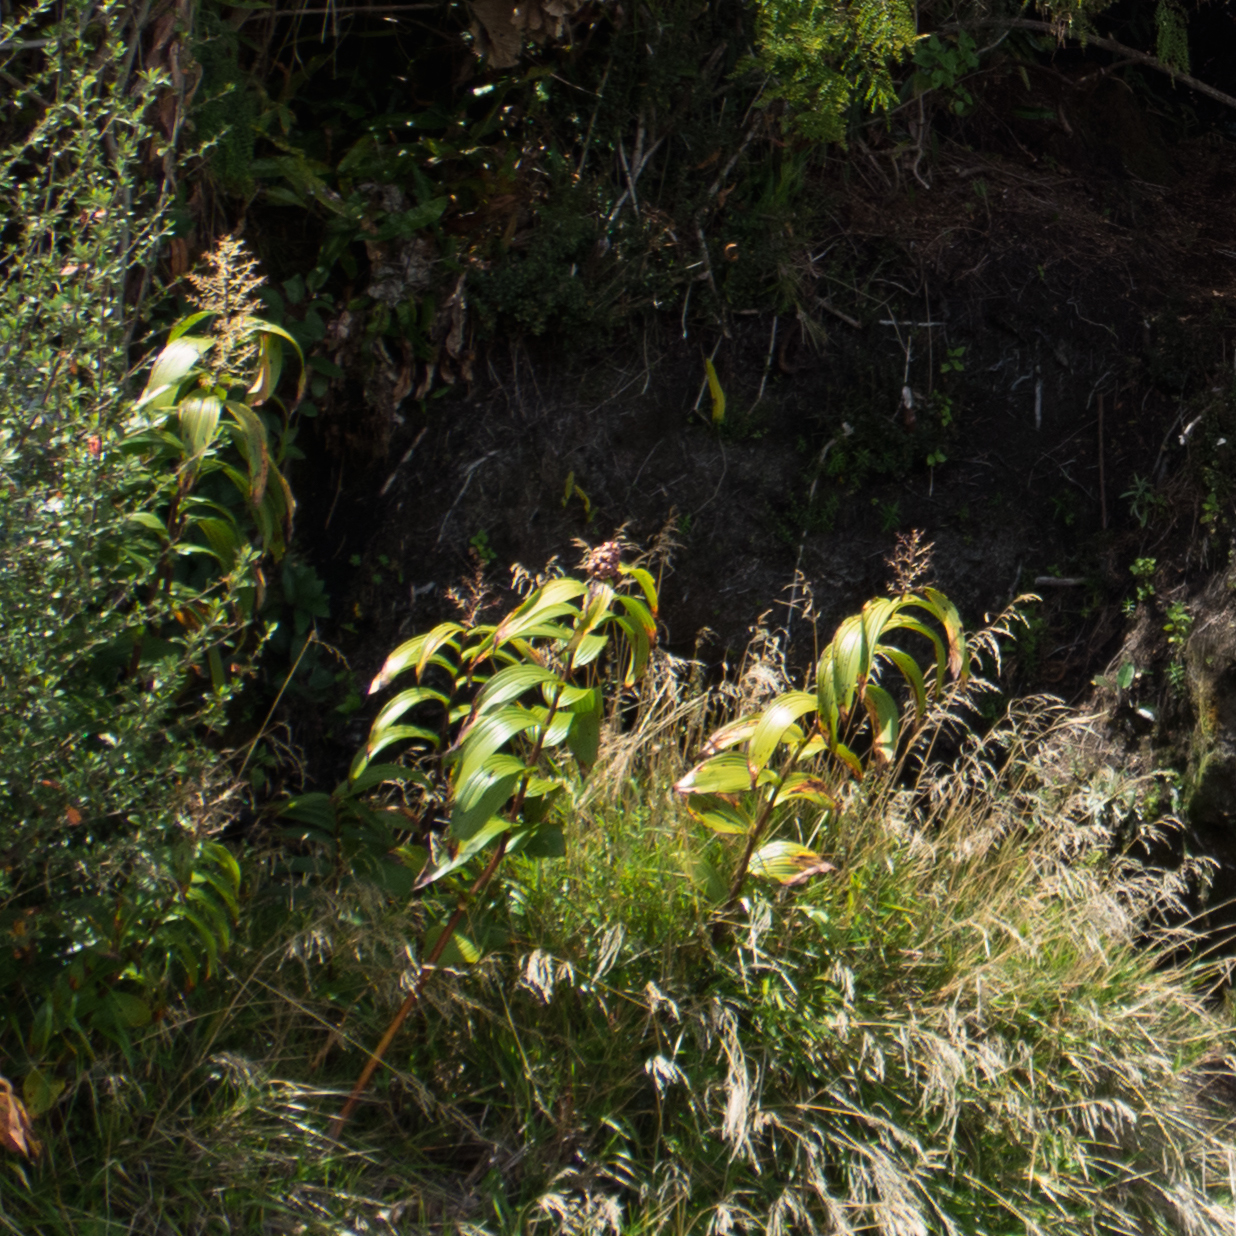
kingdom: Plantae
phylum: Tracheophyta
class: Liliopsida
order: Asparagales
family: Asparagaceae
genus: Maianthemum
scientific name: Maianthemum gigas
